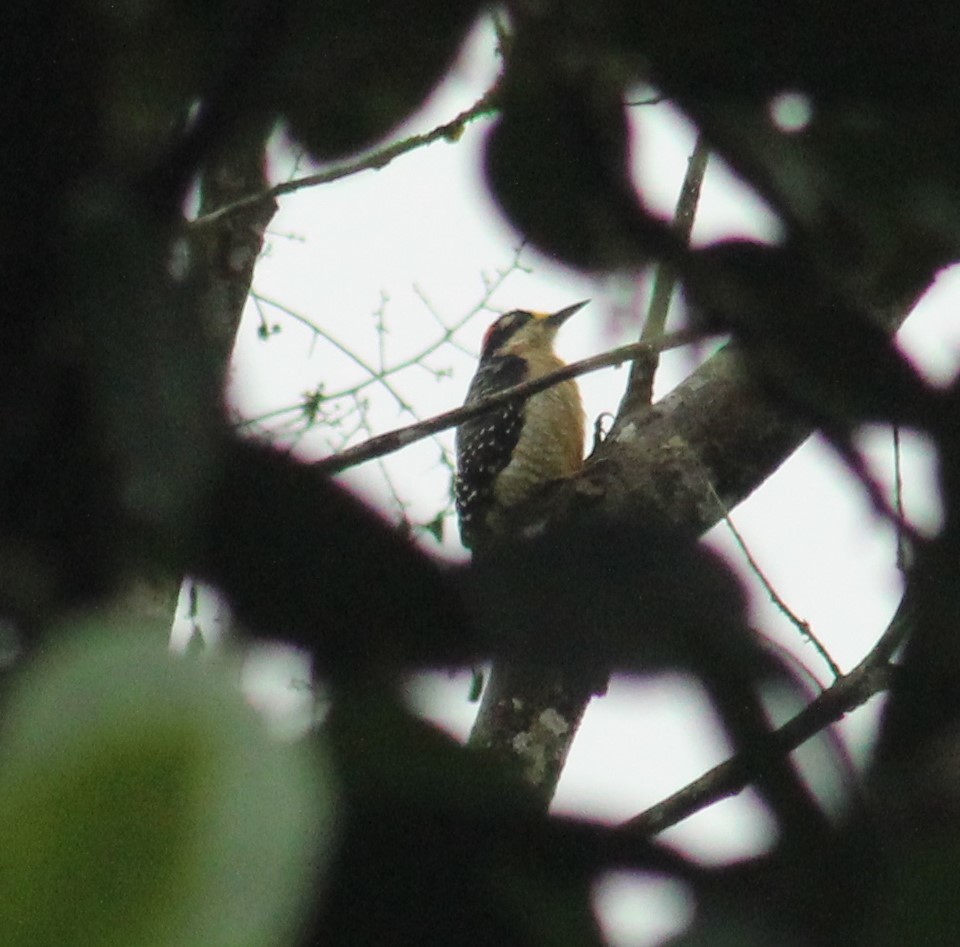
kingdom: Animalia
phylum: Chordata
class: Aves
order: Piciformes
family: Picidae
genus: Melanerpes
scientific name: Melanerpes pucherani
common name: Black-cheeked woodpecker
